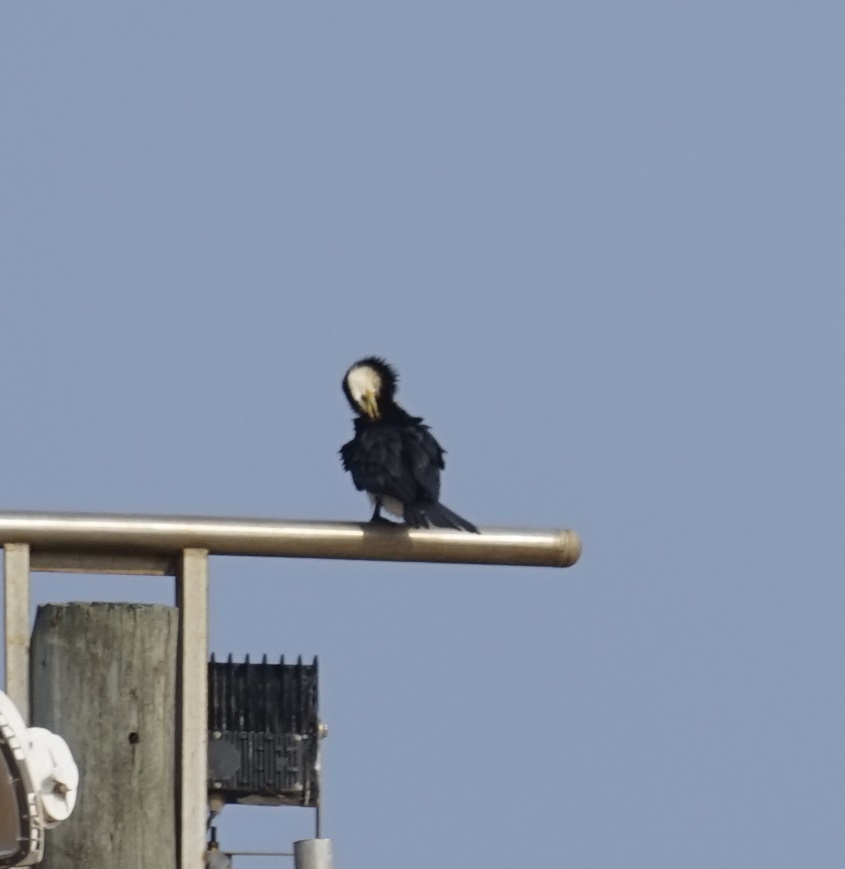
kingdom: Animalia
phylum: Chordata
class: Aves
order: Suliformes
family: Phalacrocoracidae
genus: Microcarbo
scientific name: Microcarbo melanoleucos
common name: Little pied cormorant
